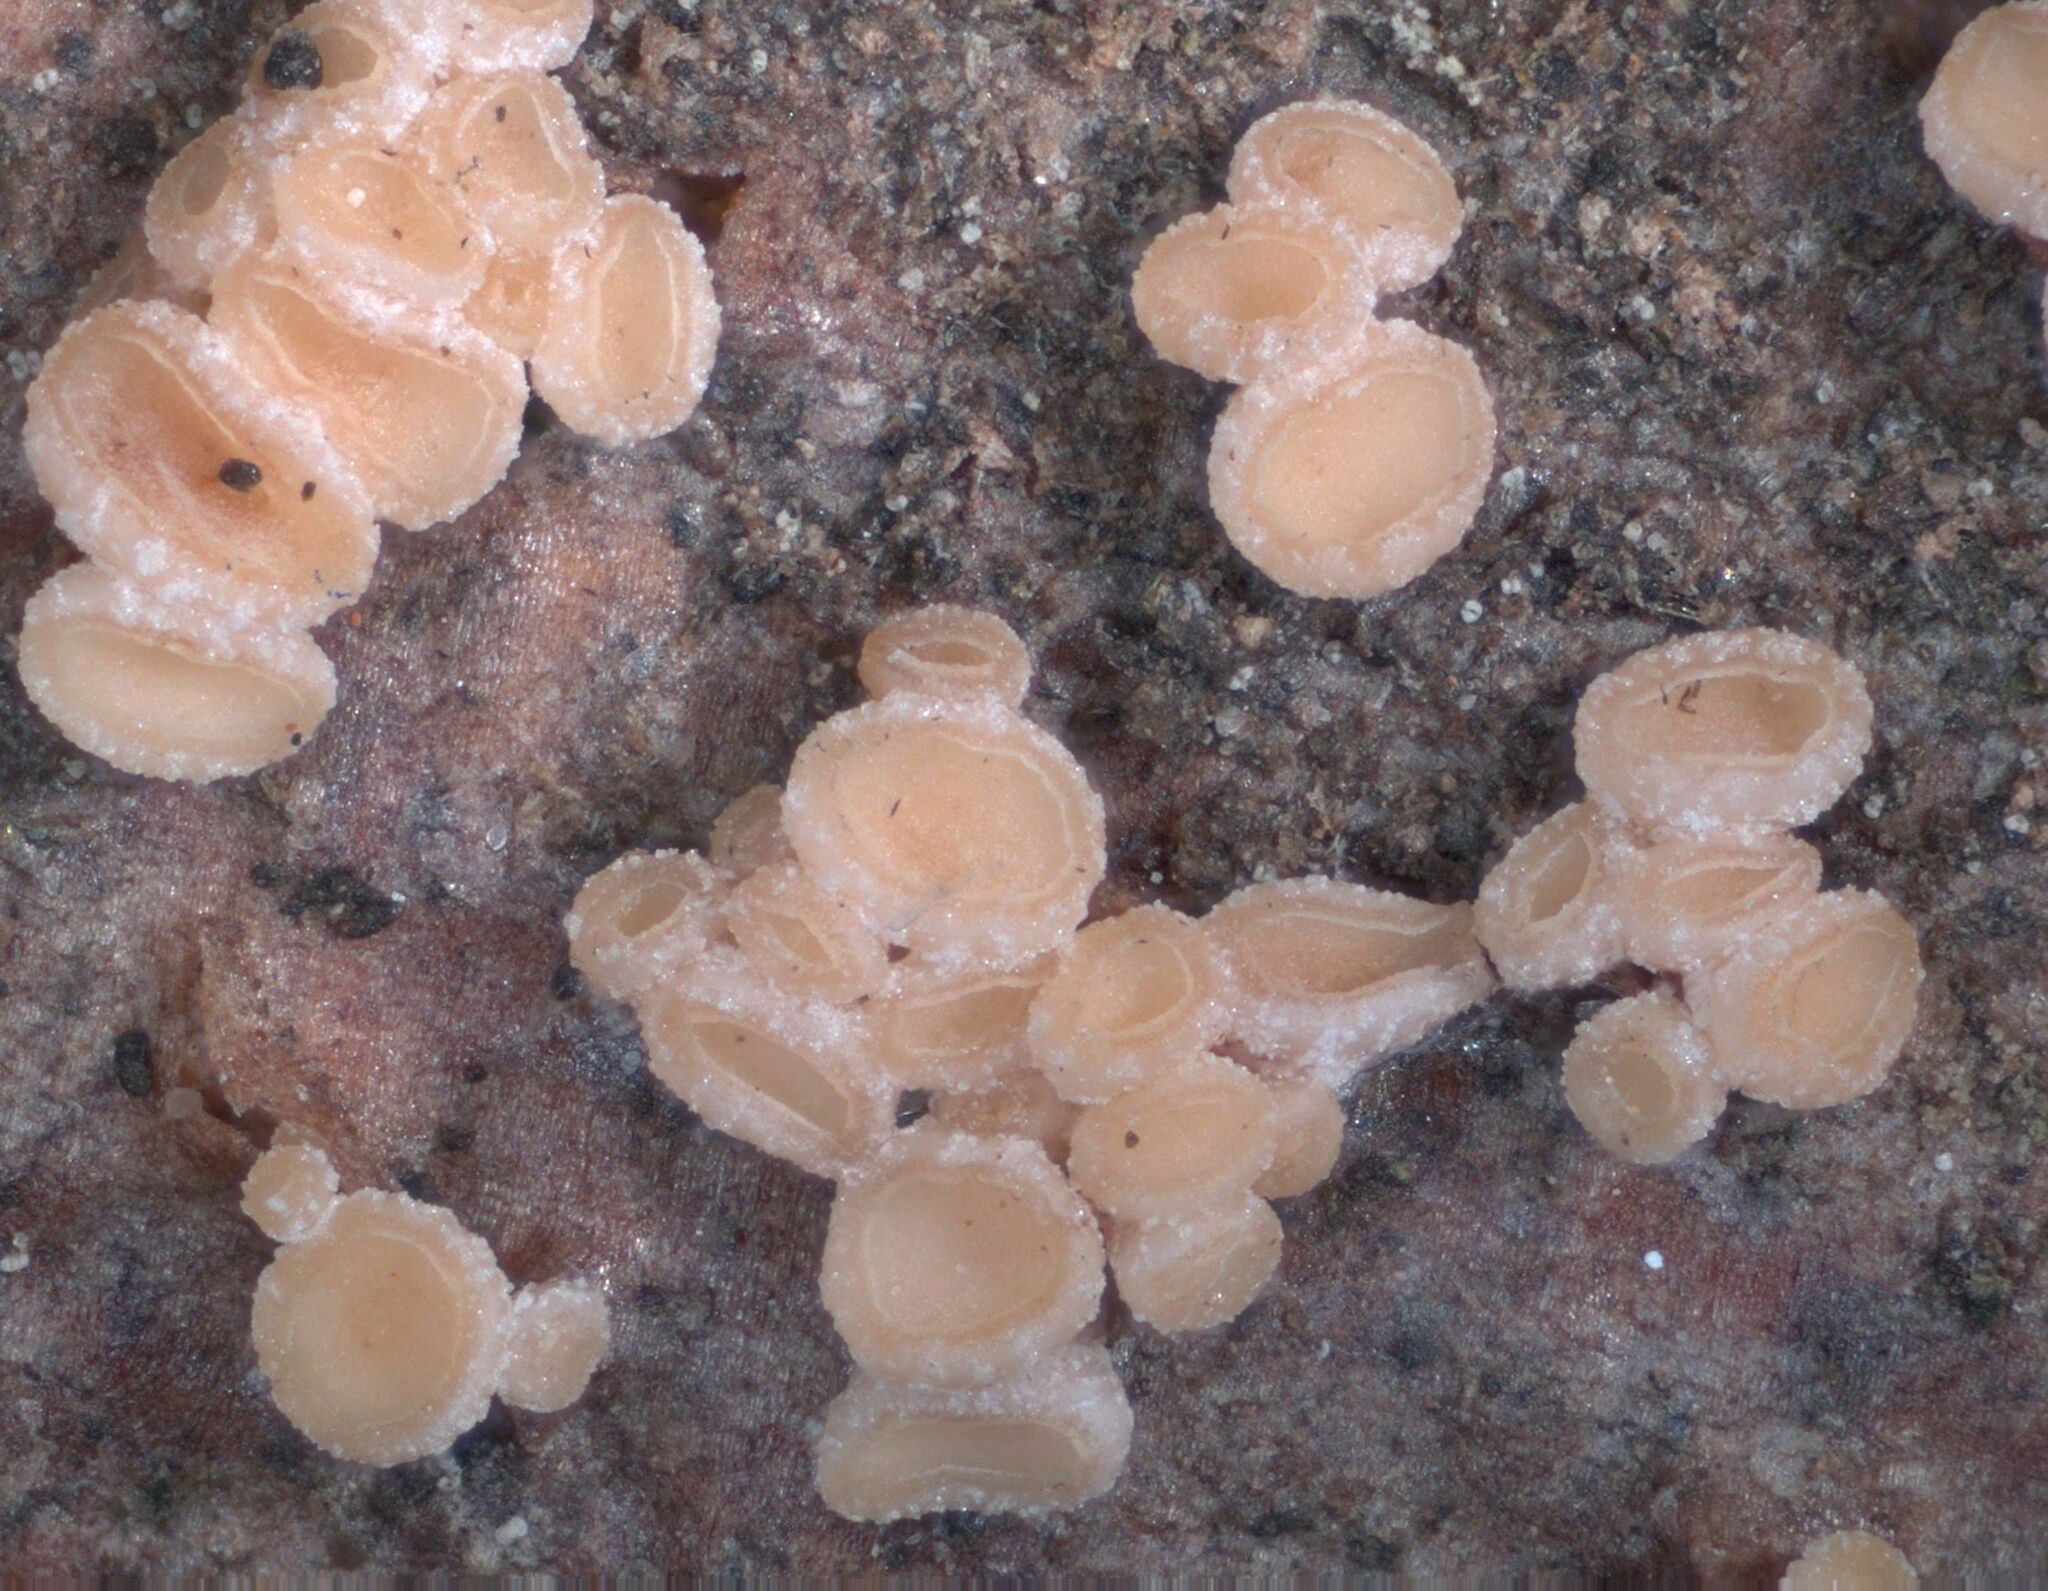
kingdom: Fungi
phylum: Ascomycota
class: Leotiomycetes
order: Helotiales
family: Gelatinodiscaceae
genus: Xerombrophila
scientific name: Xerombrophila crystallifera
